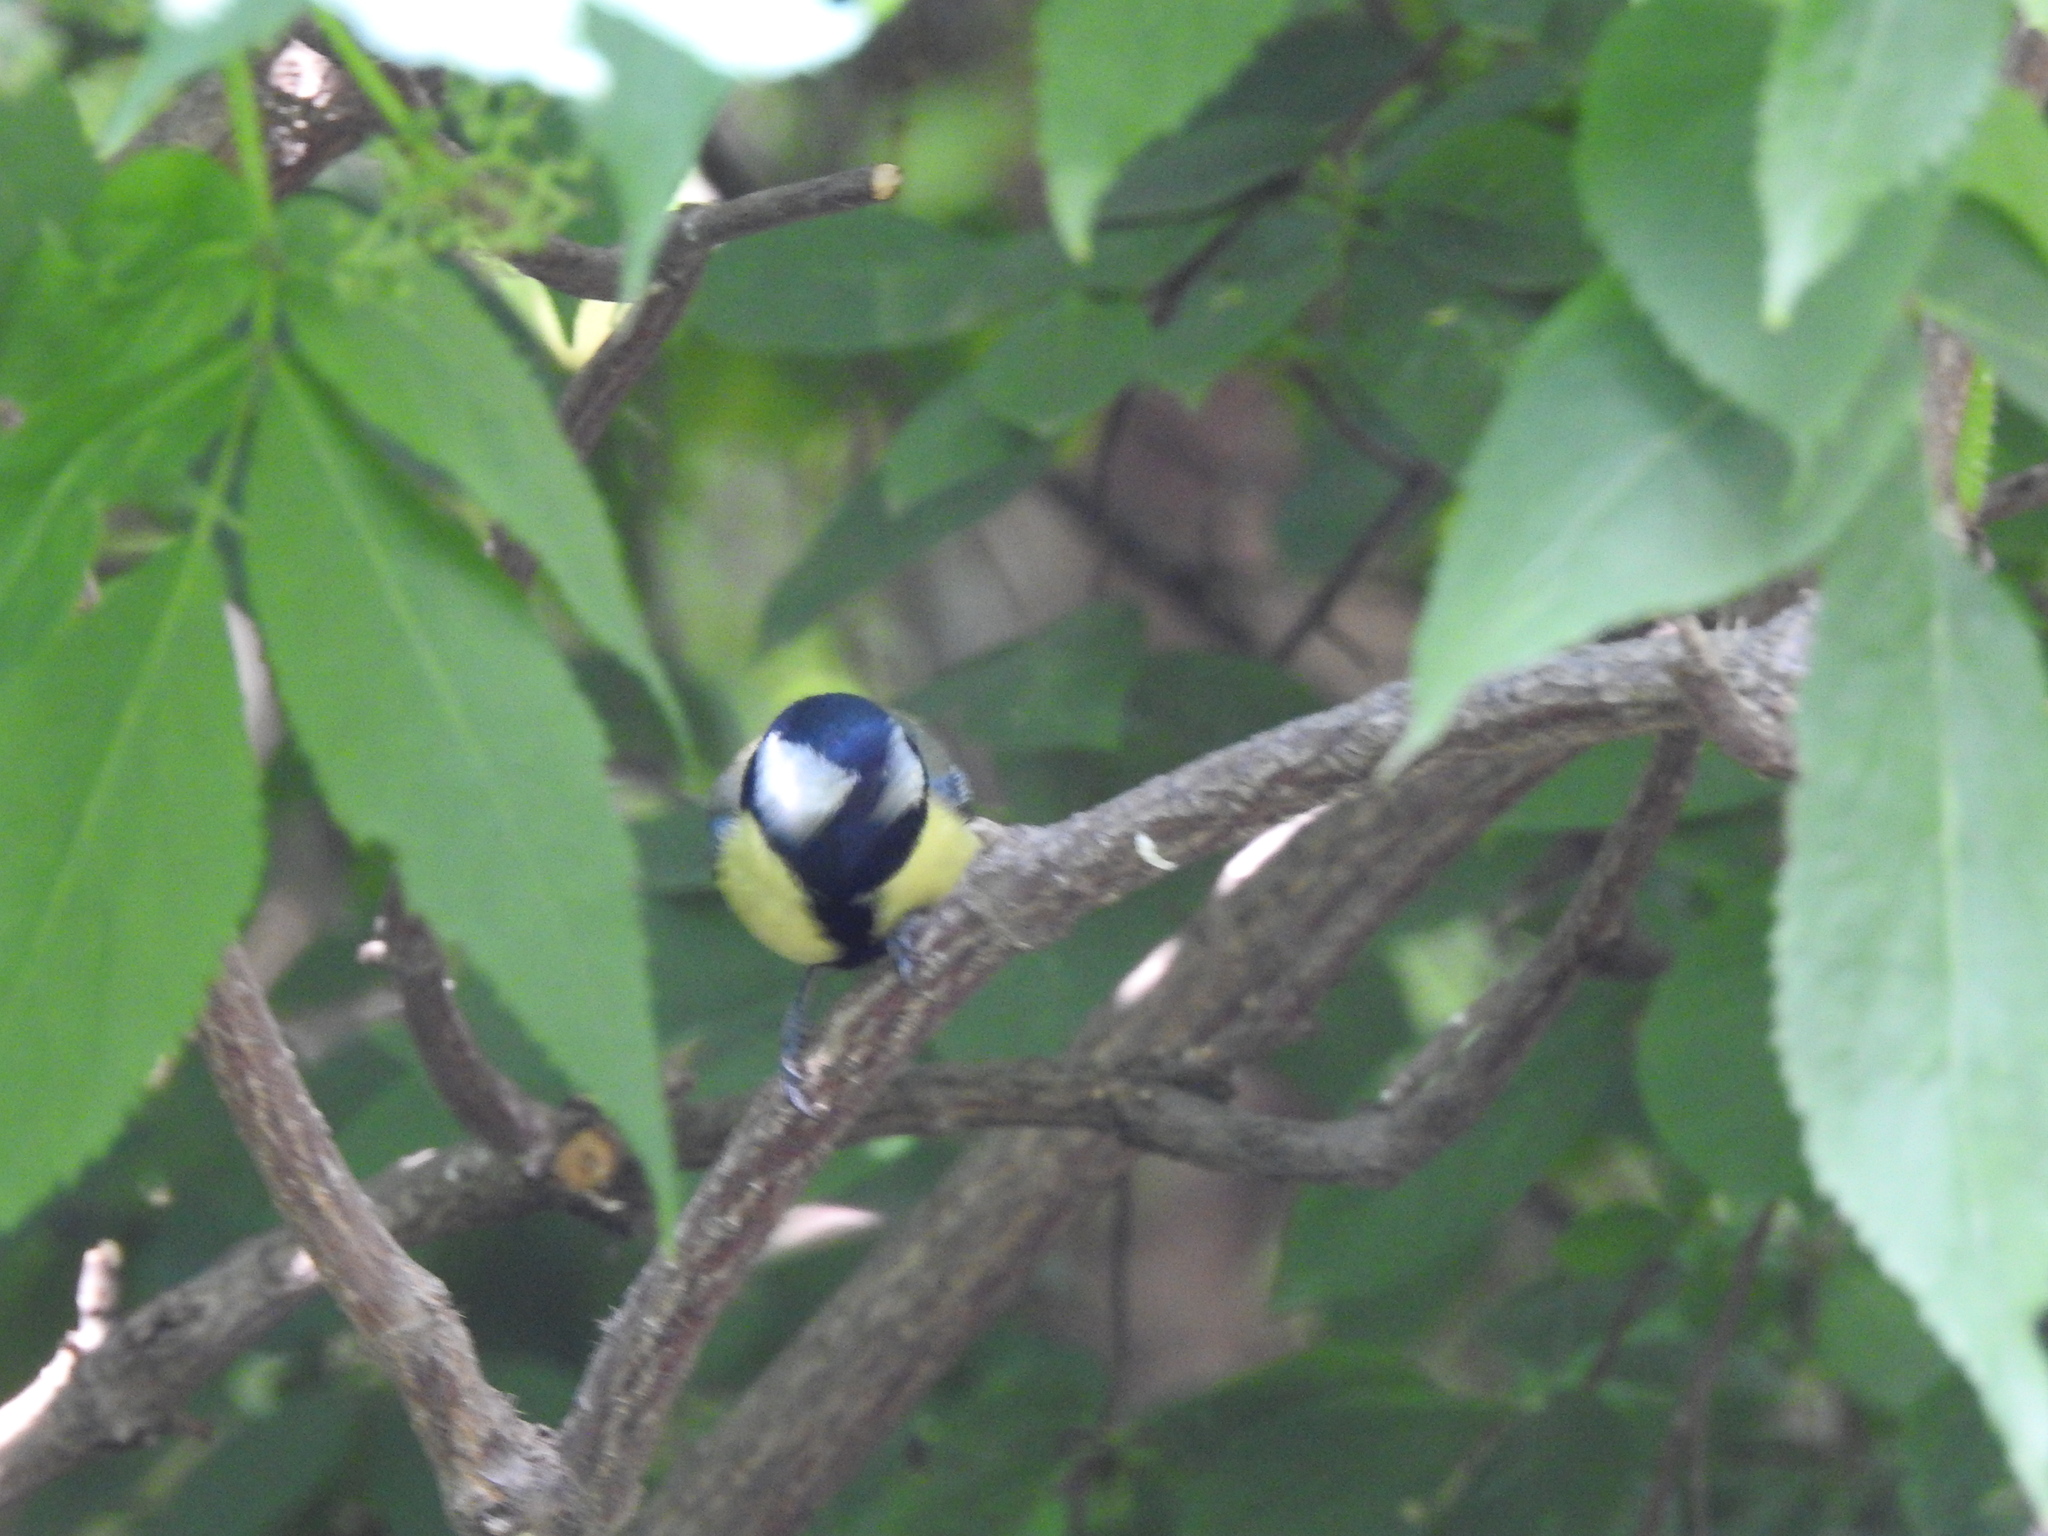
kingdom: Animalia
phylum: Chordata
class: Aves
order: Passeriformes
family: Paridae
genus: Parus
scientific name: Parus major
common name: Great tit
